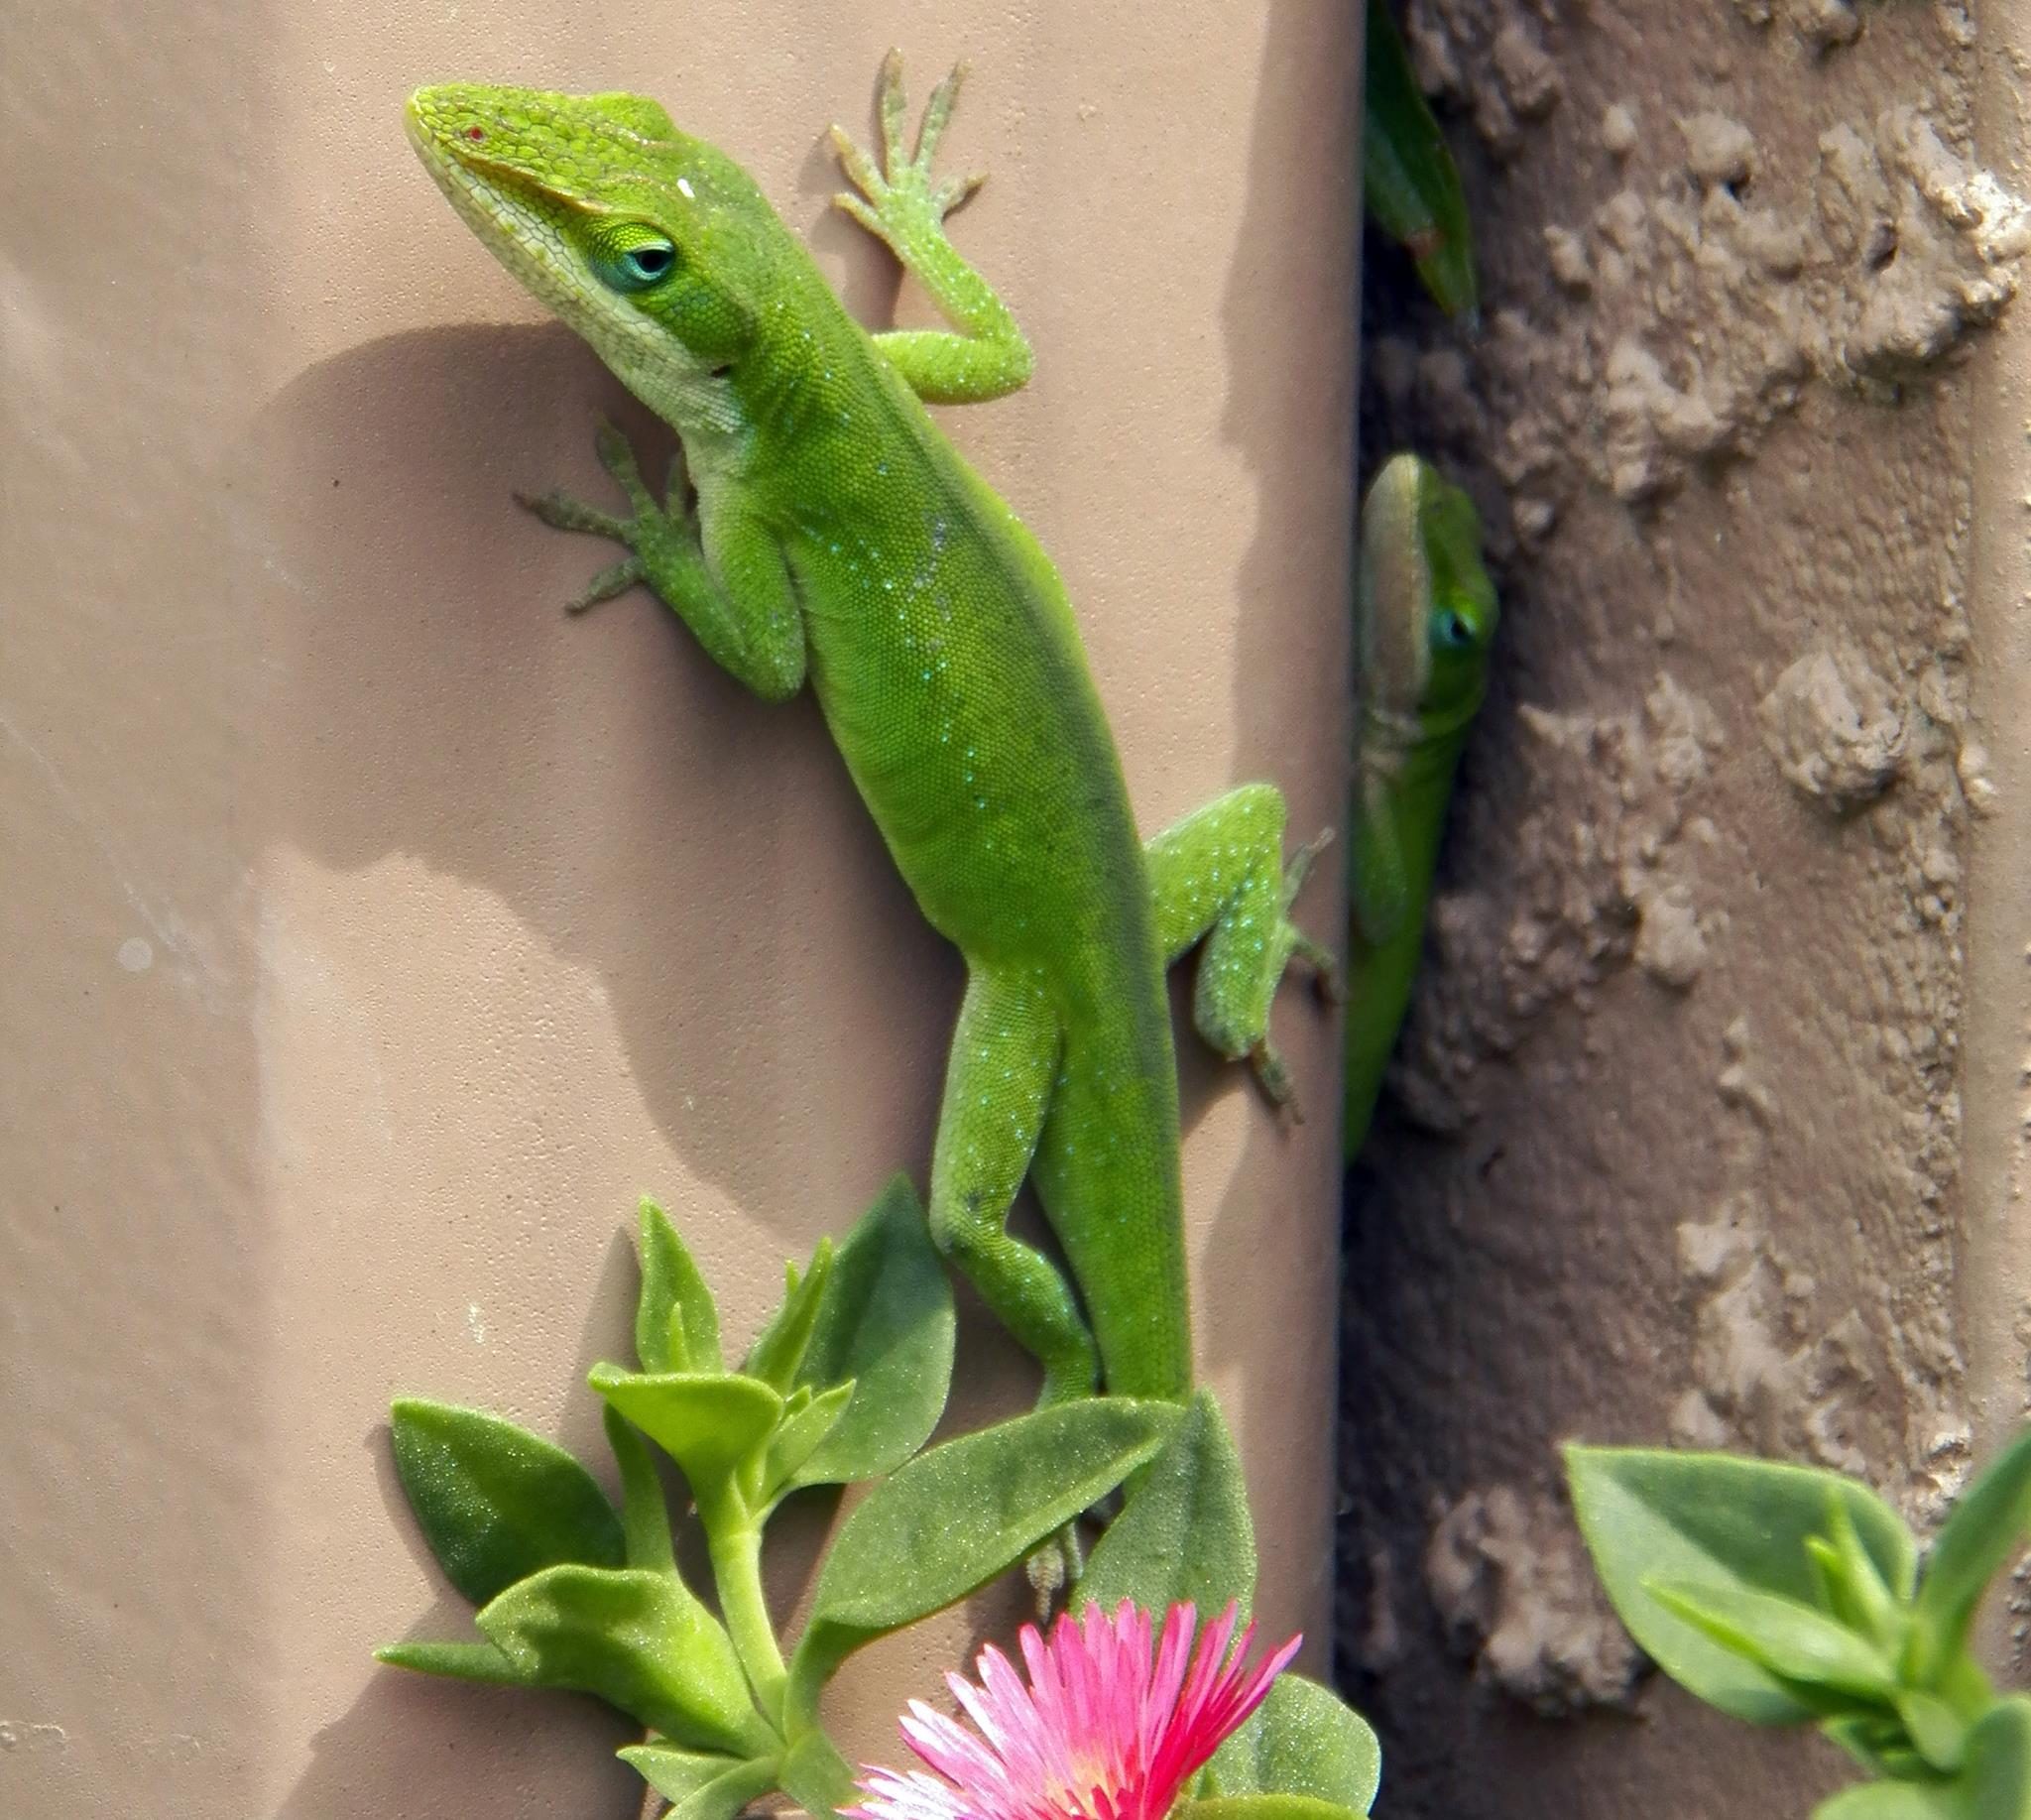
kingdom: Animalia
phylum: Chordata
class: Squamata
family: Dactyloidae
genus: Anolis
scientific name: Anolis carolinensis
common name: Green anole
